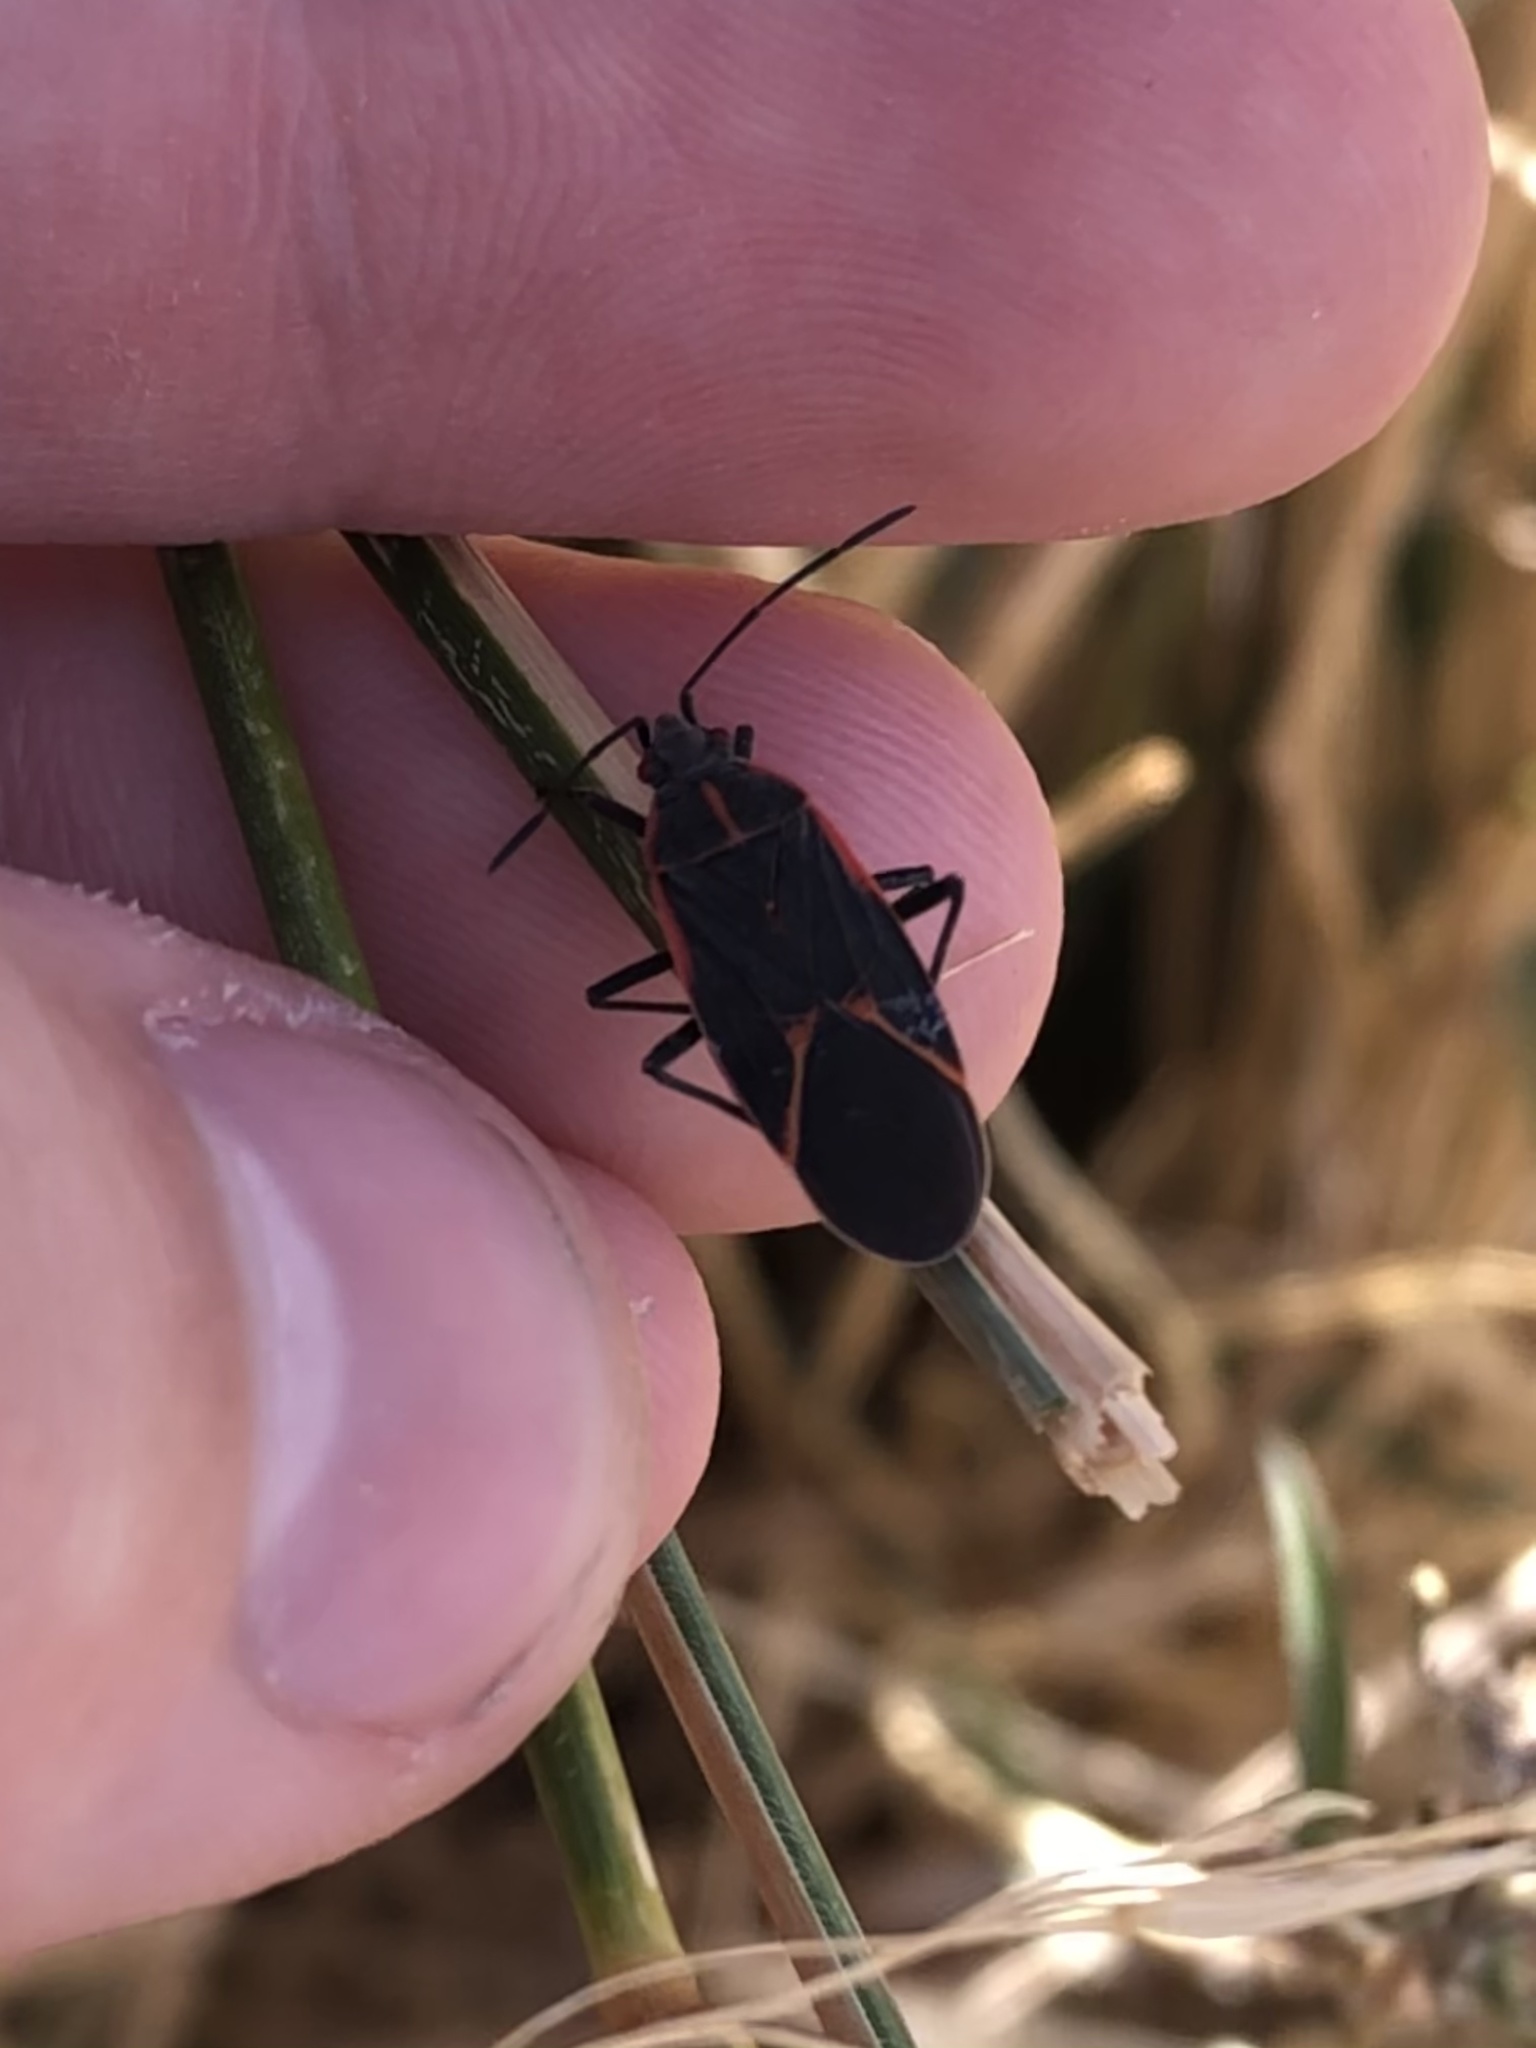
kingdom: Animalia
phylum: Arthropoda
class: Insecta
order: Hemiptera
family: Rhopalidae
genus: Boisea
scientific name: Boisea trivittata
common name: Boxelder bug
